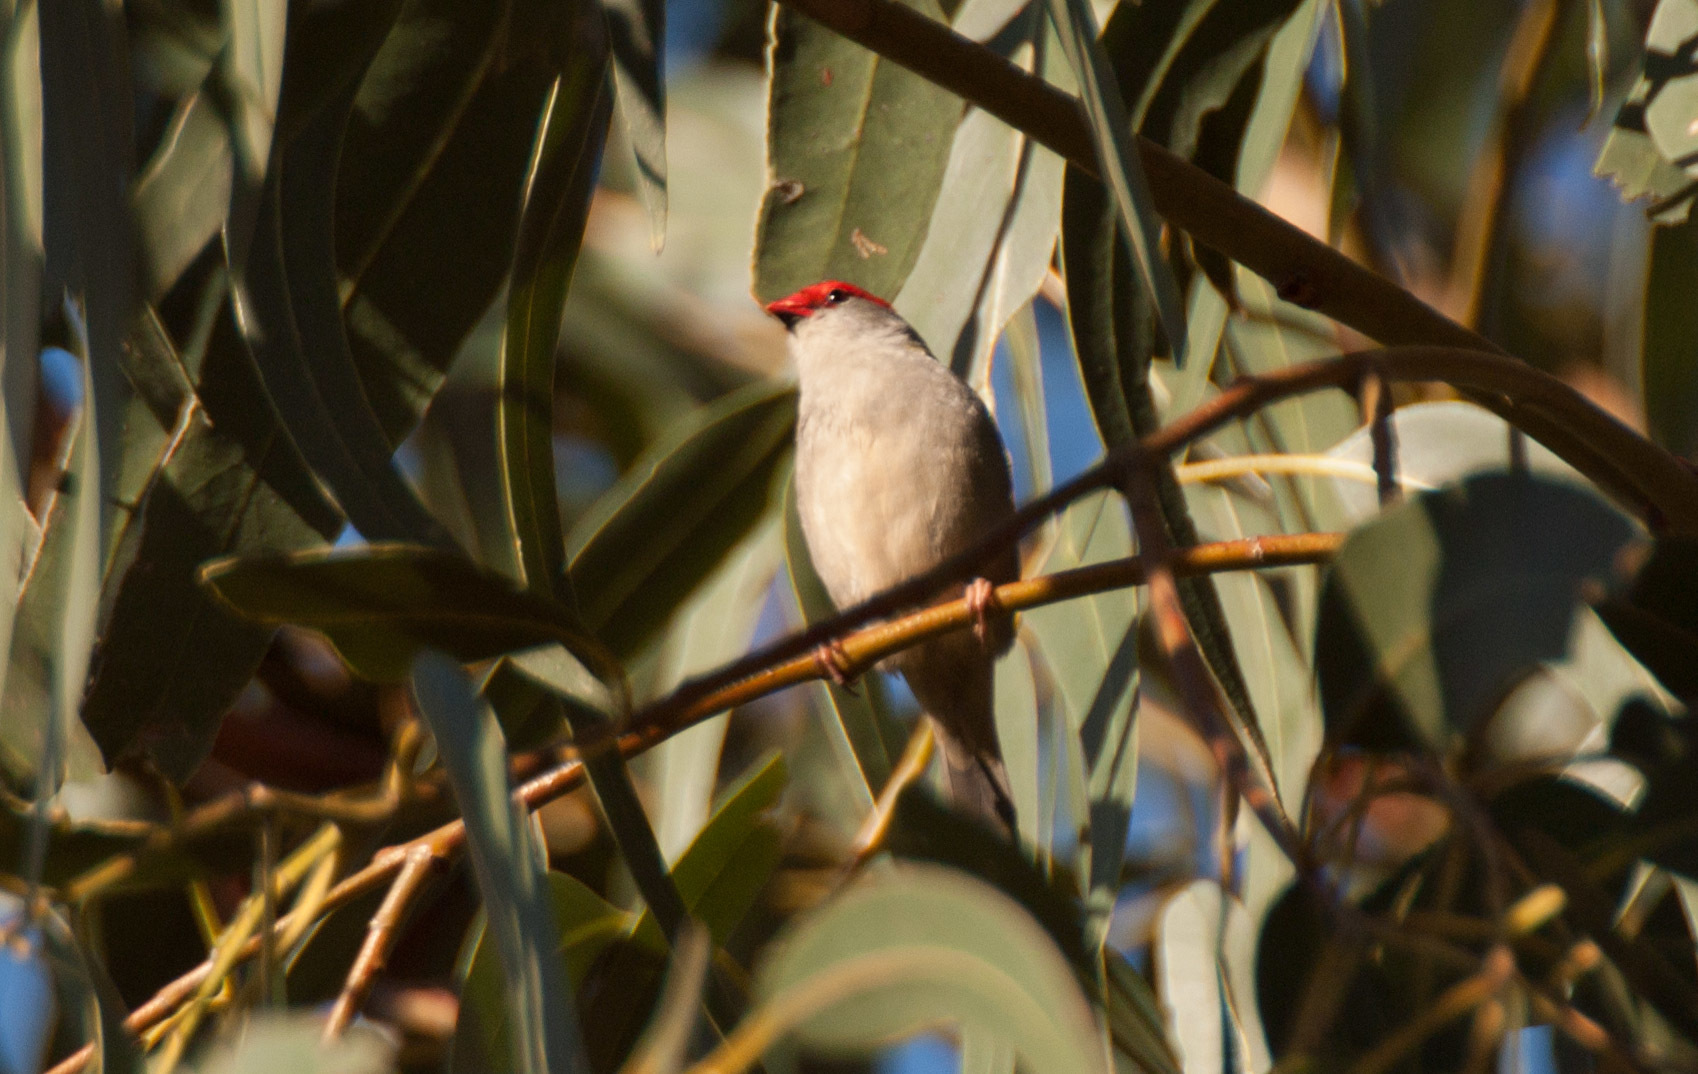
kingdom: Animalia
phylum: Chordata
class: Aves
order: Passeriformes
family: Estrildidae
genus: Neochmia
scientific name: Neochmia temporalis
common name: Red-browed finch
